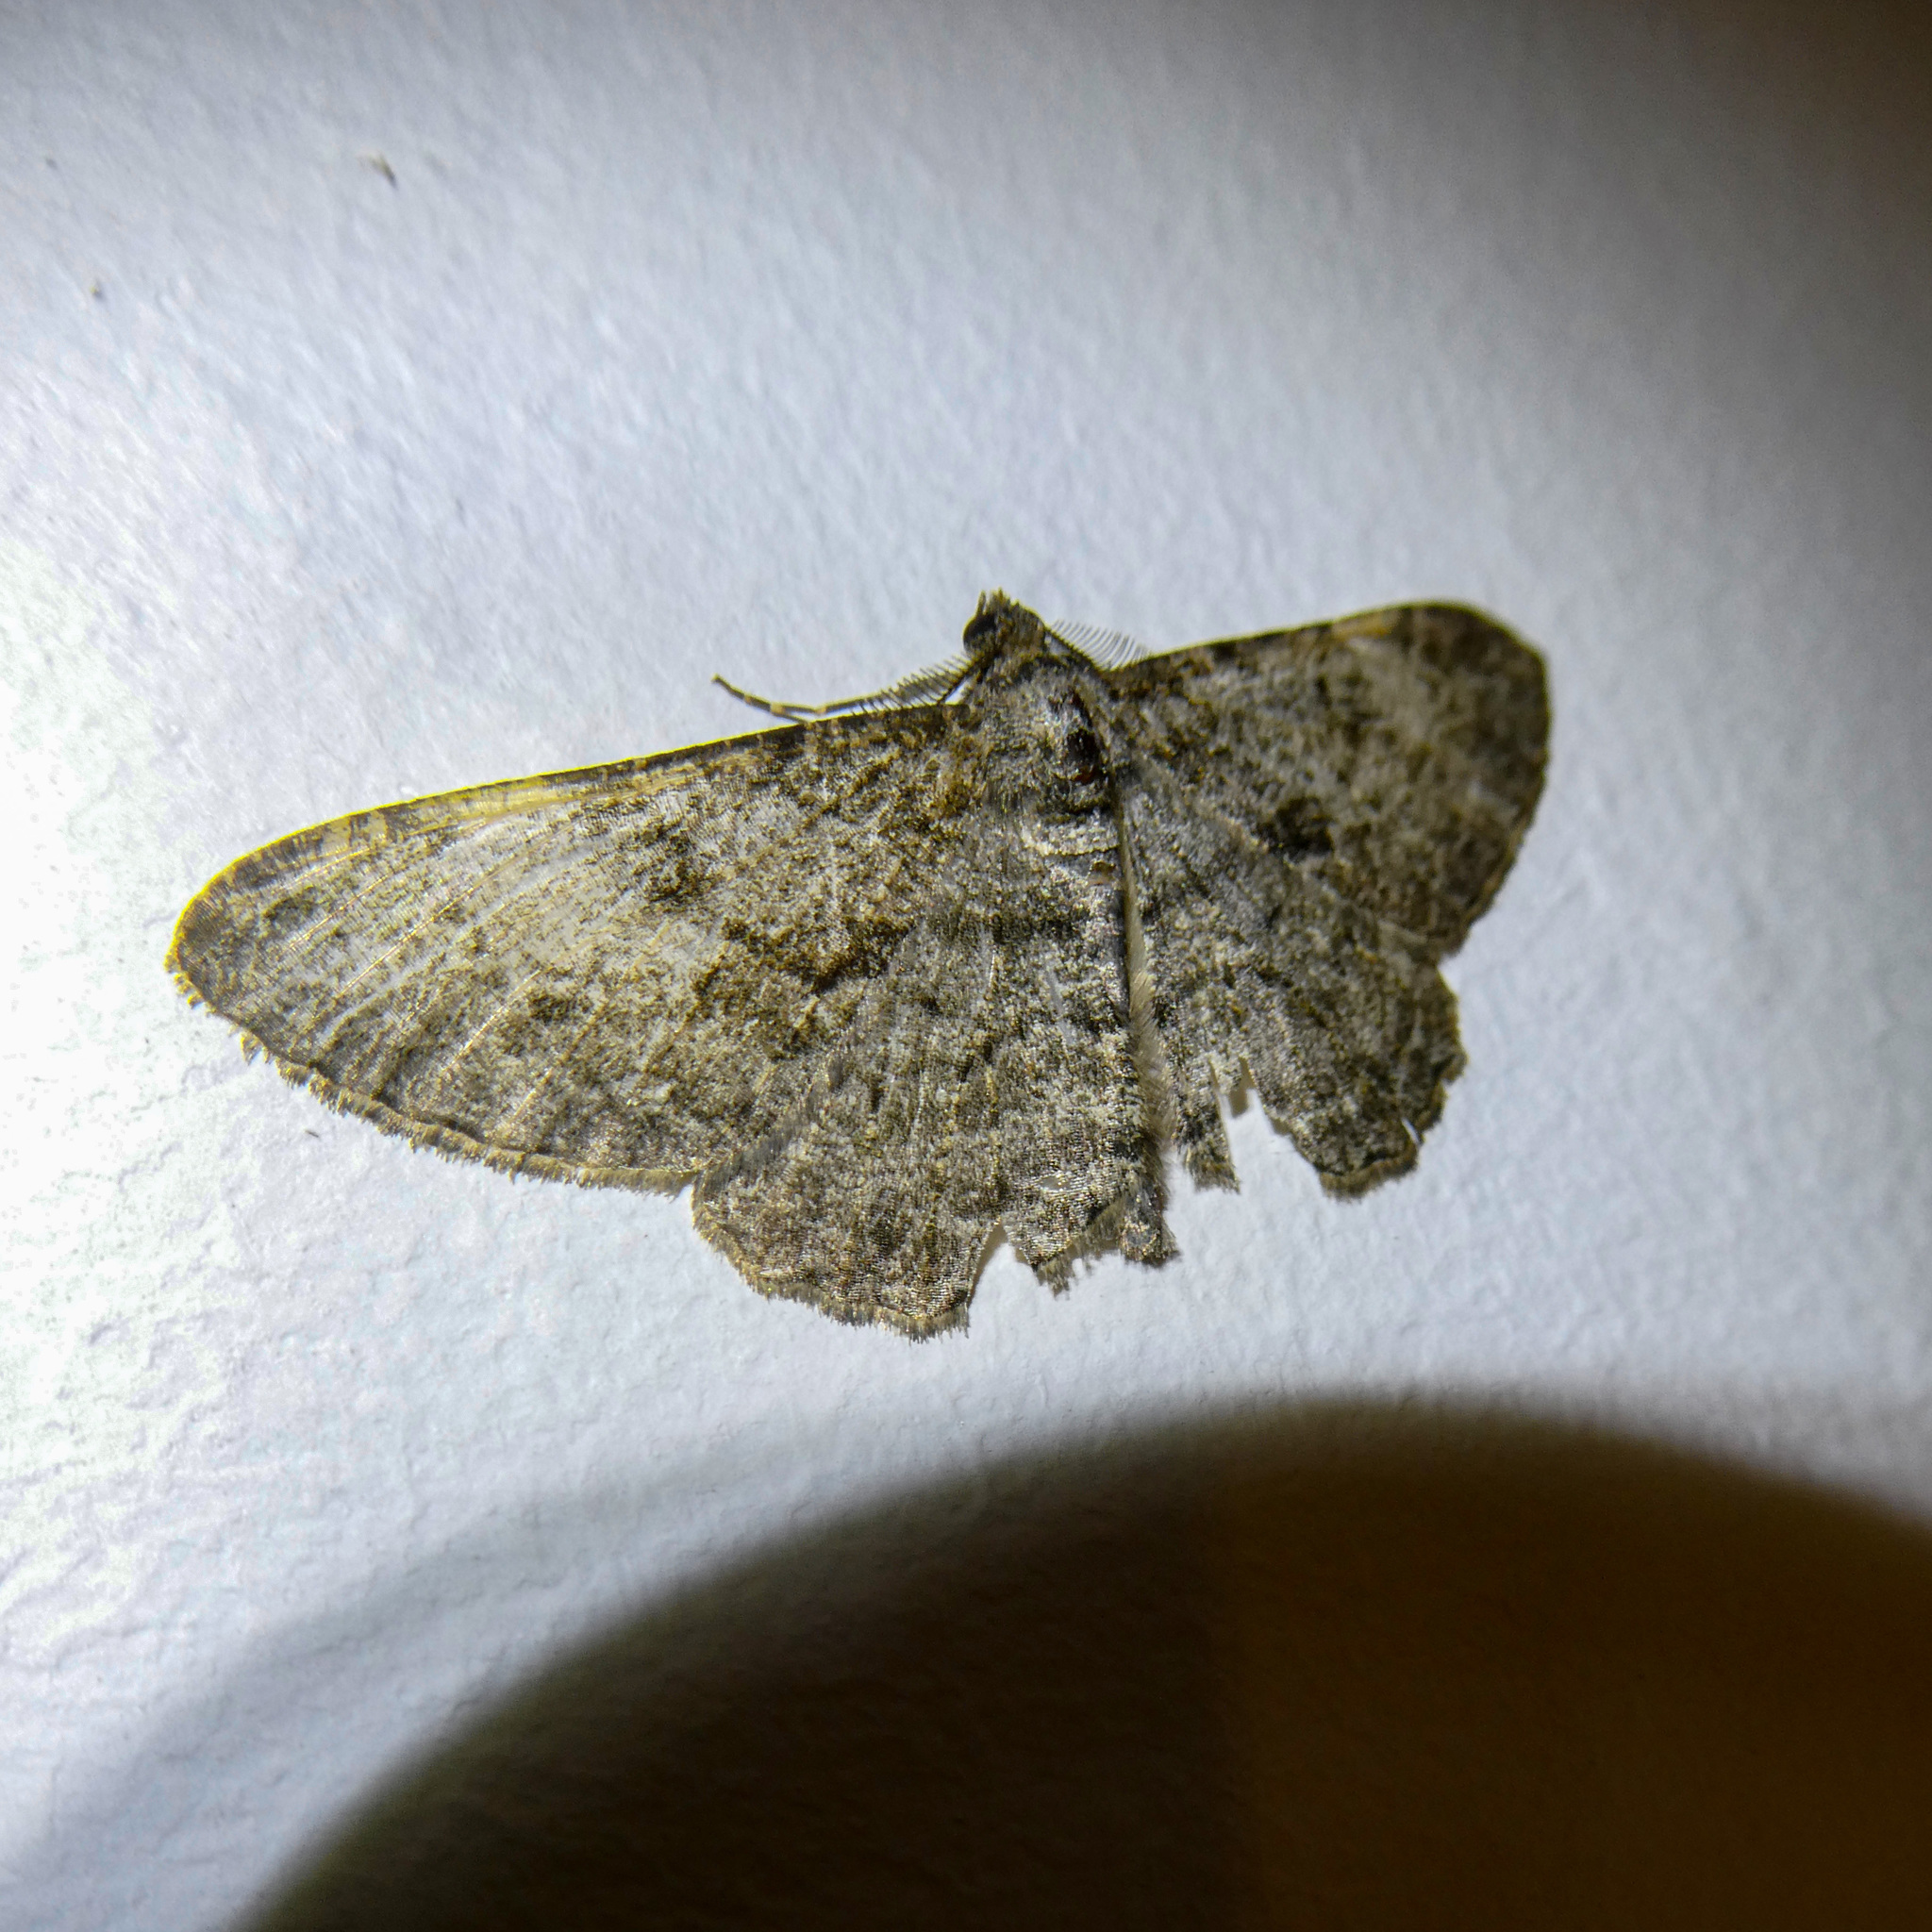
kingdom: Animalia
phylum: Arthropoda
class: Insecta
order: Lepidoptera
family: Geometridae
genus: Peribatodes
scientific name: Peribatodes rhomboidaria
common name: Willow beauty
